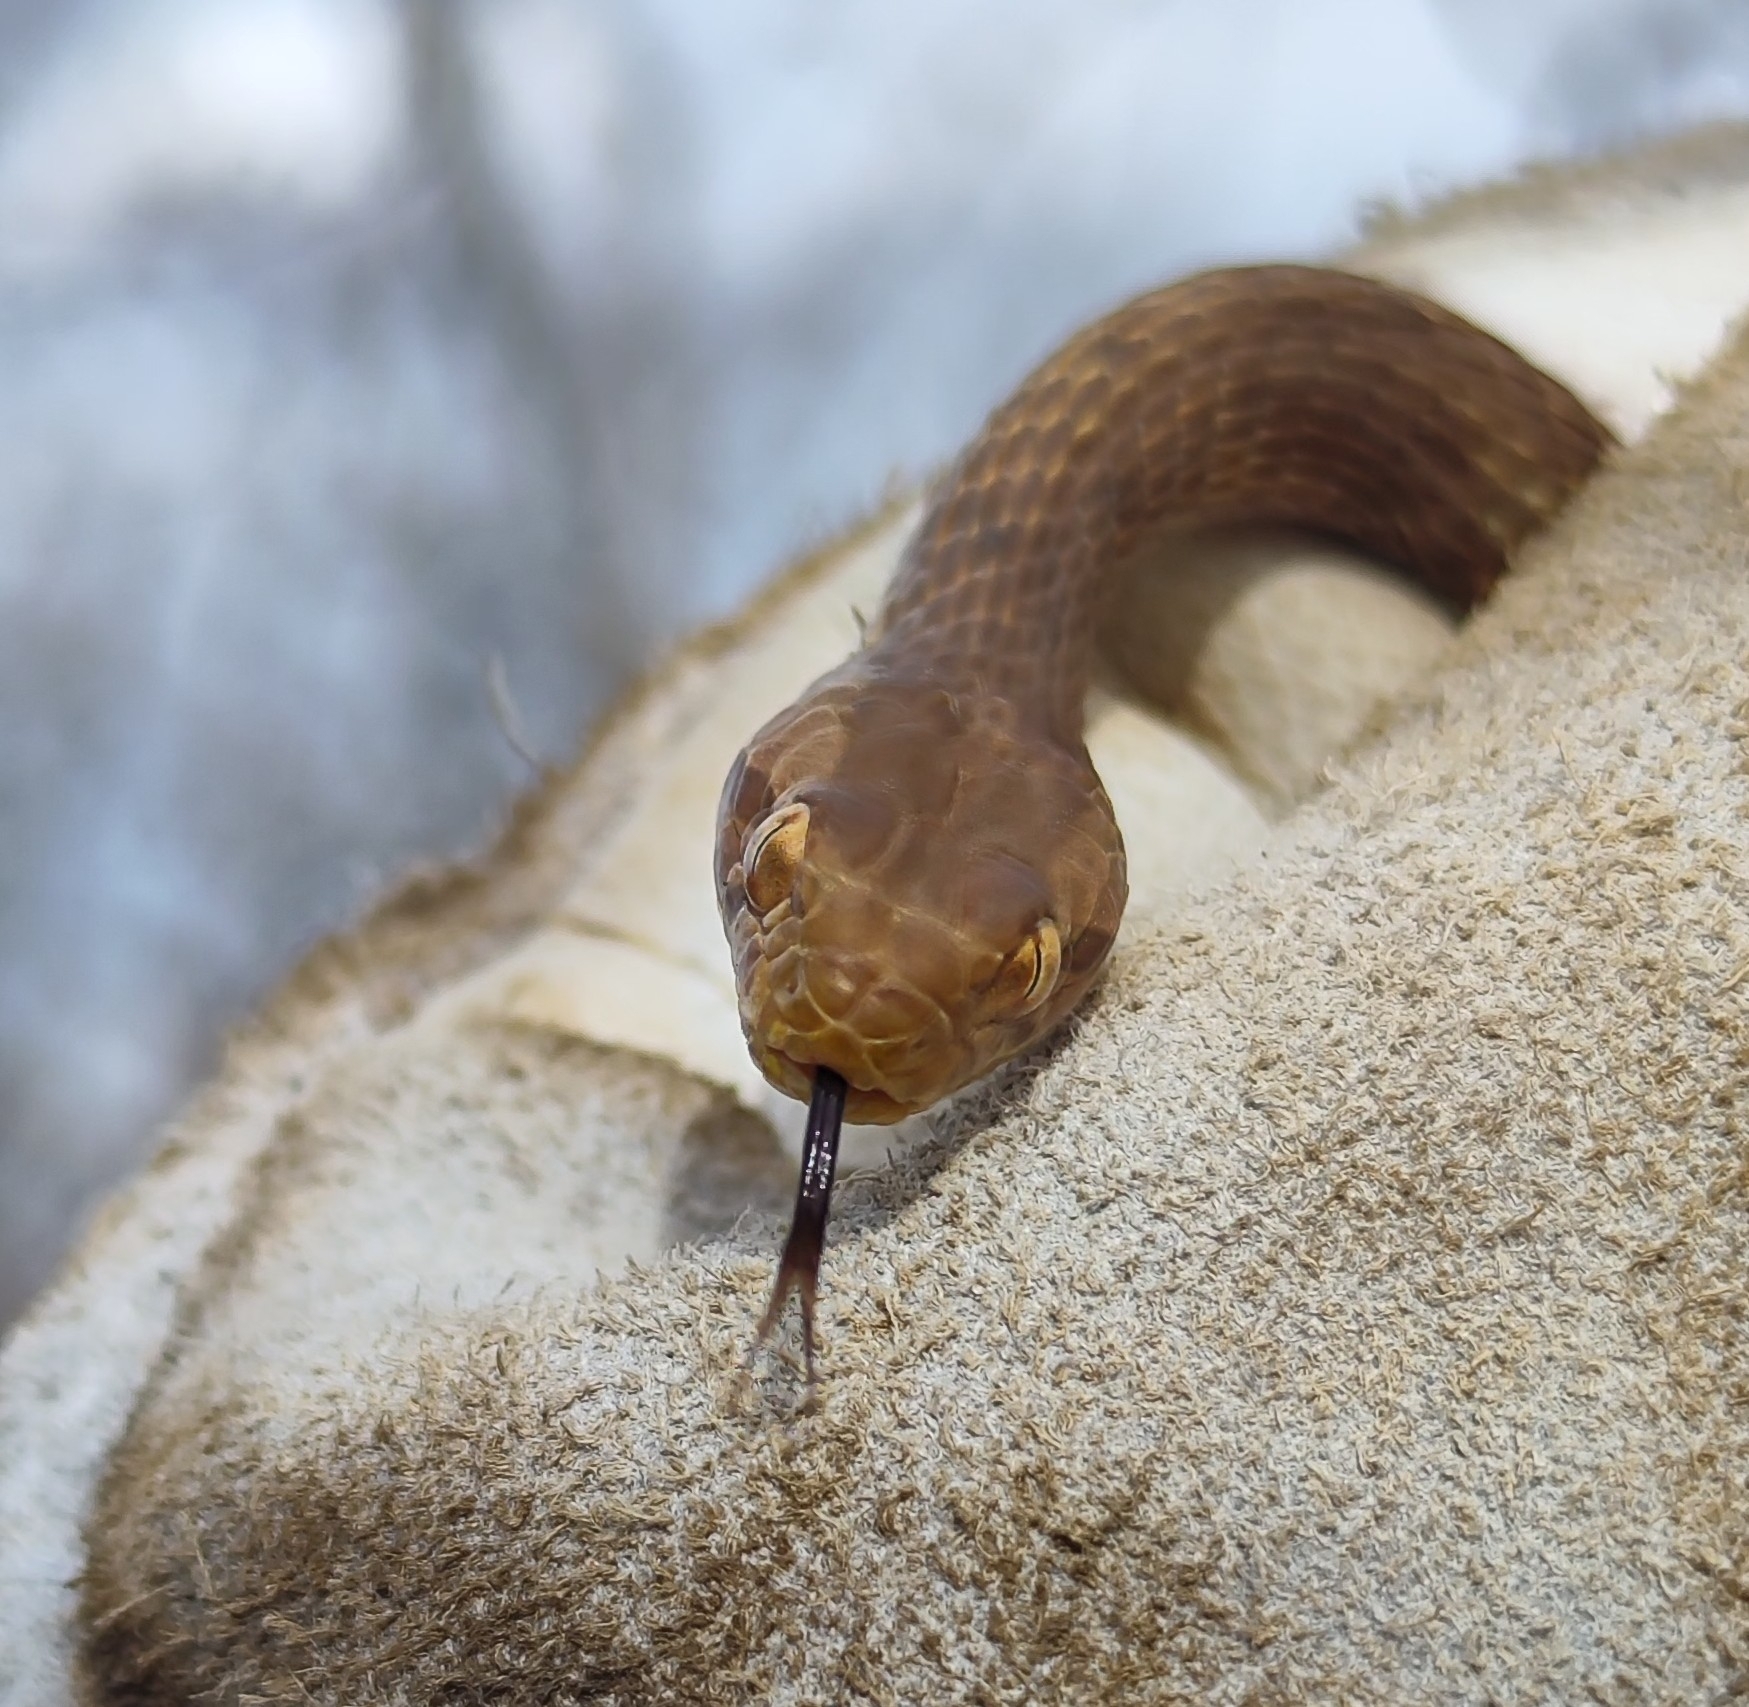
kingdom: Animalia
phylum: Chordata
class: Squamata
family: Colubridae
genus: Thamnodynastes
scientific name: Thamnodynastes sertanejo
